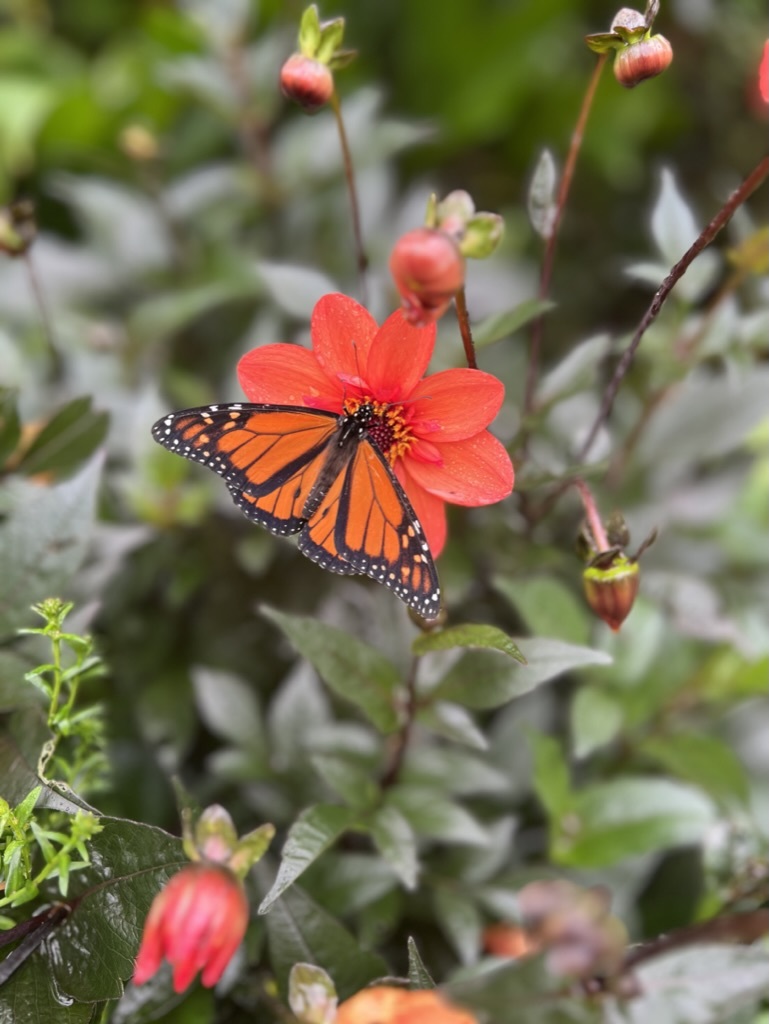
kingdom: Animalia
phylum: Arthropoda
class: Insecta
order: Lepidoptera
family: Nymphalidae
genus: Danaus
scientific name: Danaus plexippus
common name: Monarch
